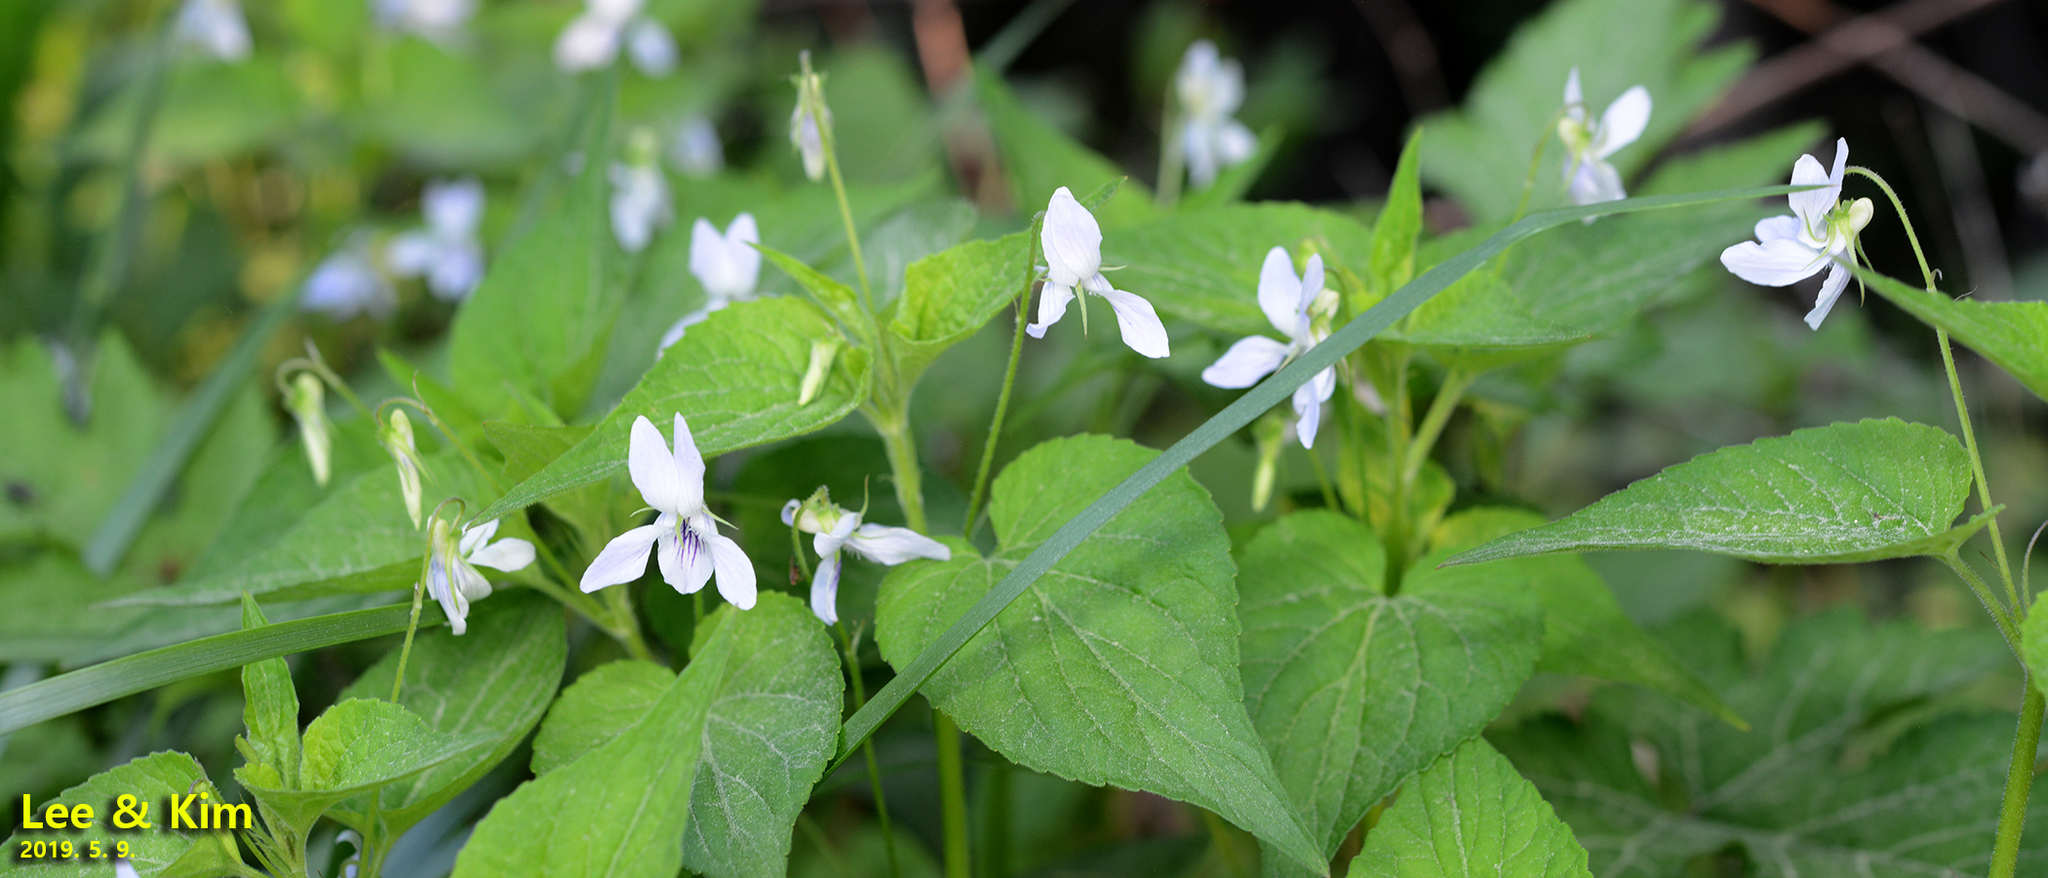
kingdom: Plantae
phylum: Tracheophyta
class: Magnoliopsida
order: Malpighiales
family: Violaceae
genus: Viola
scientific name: Viola acuminata
